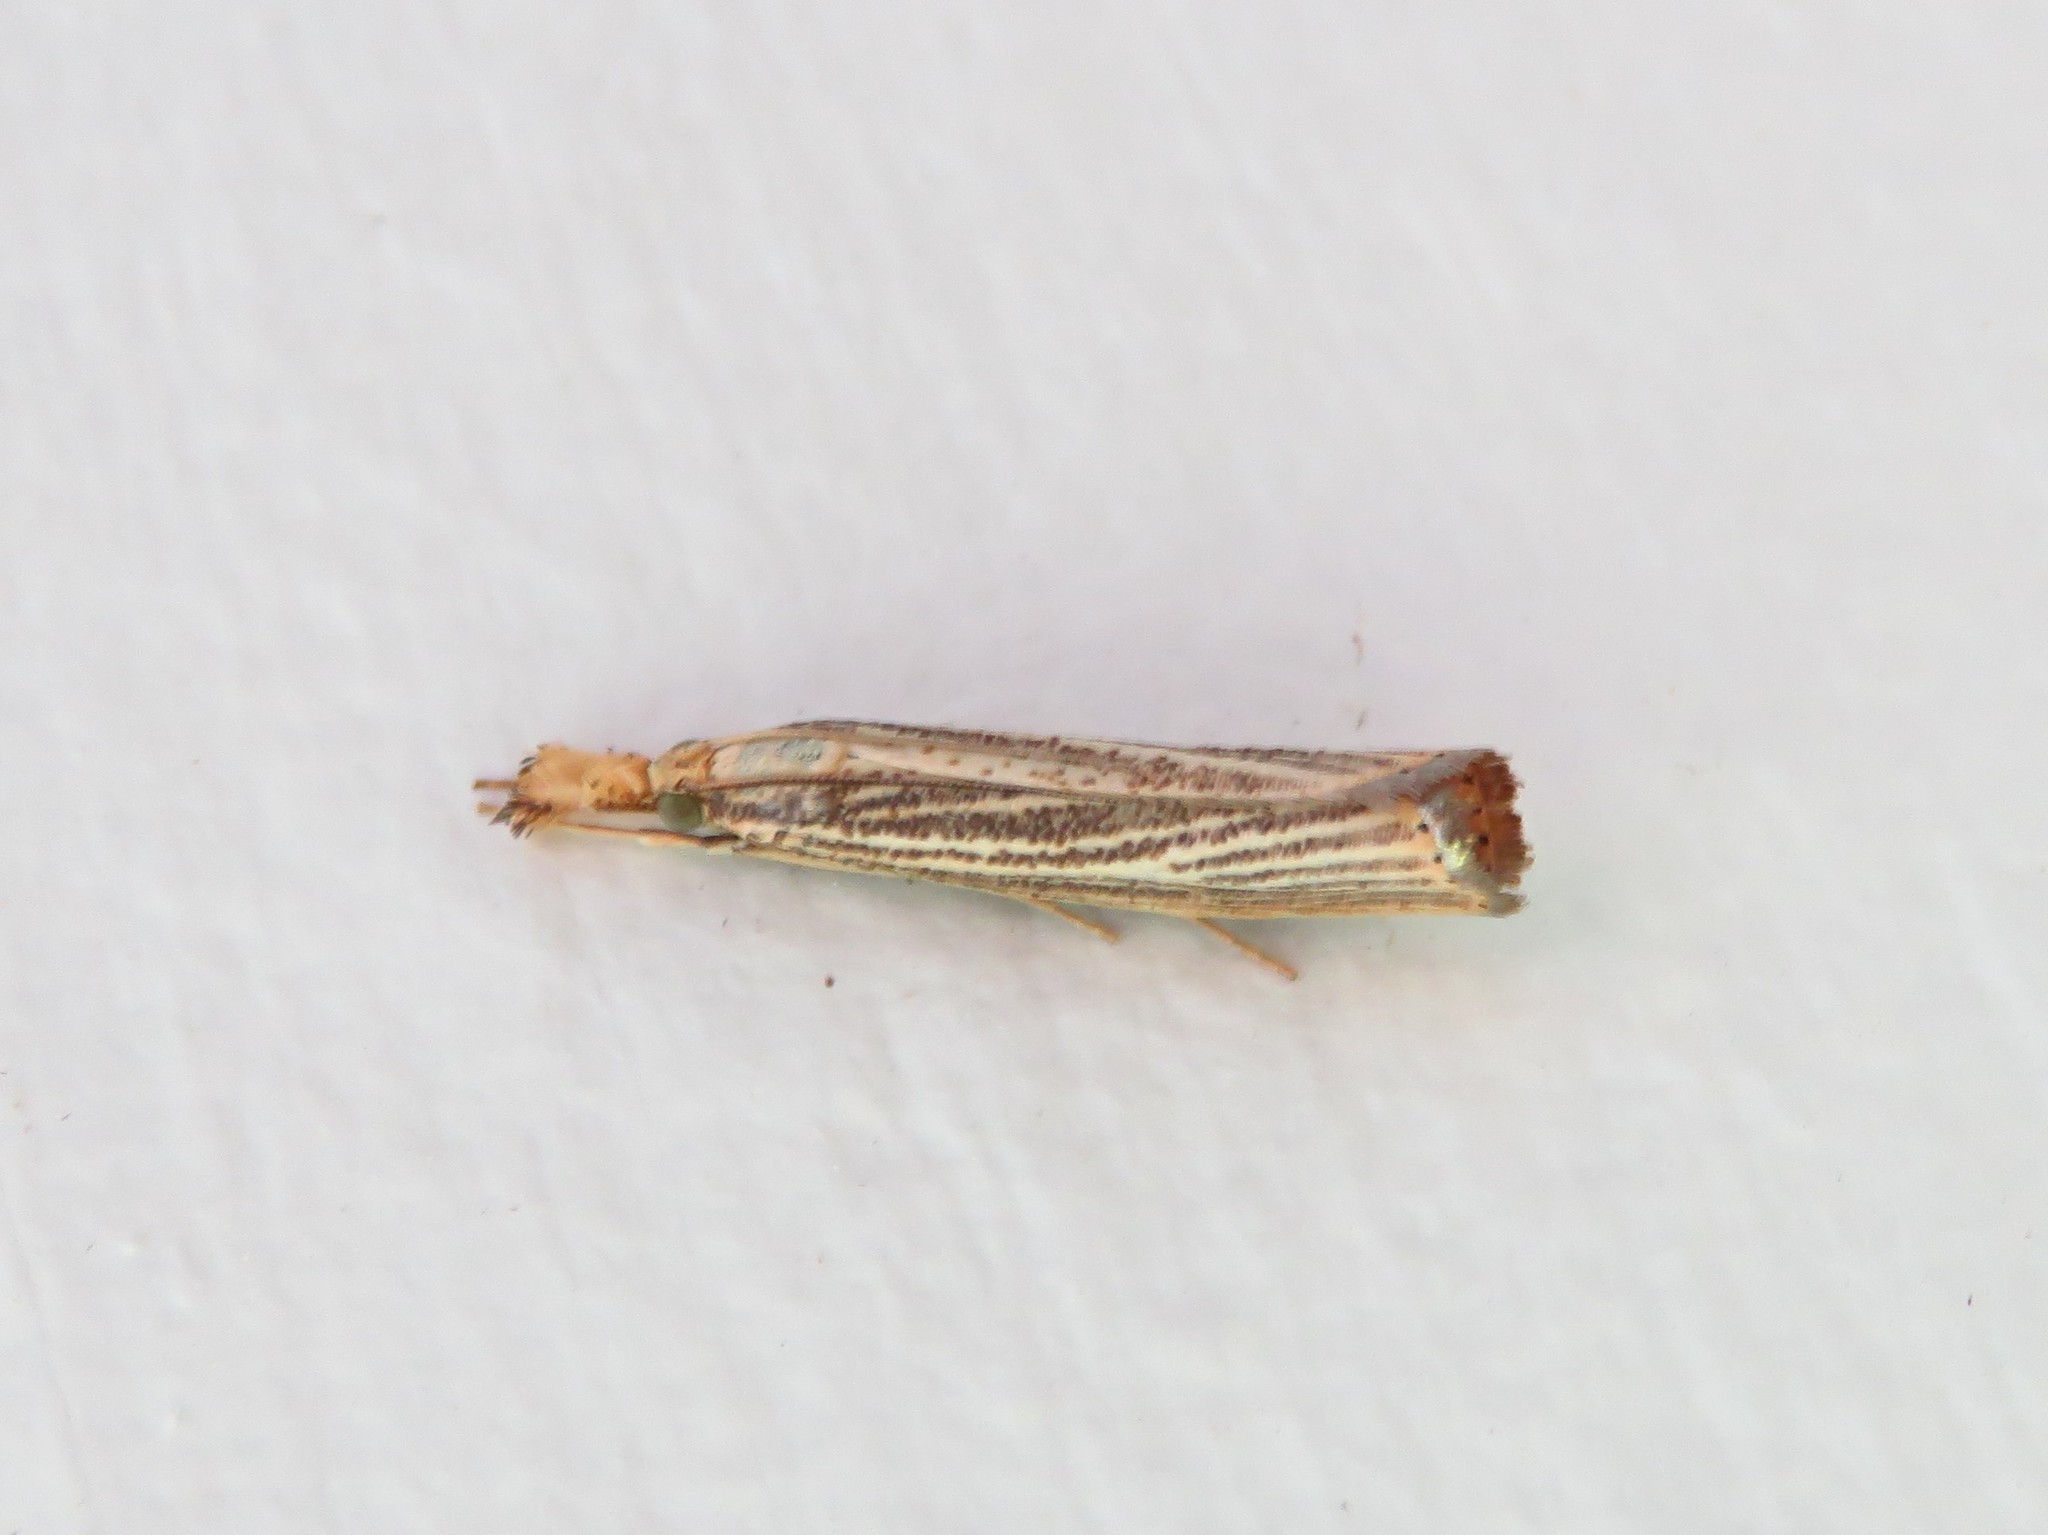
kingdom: Animalia
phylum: Arthropoda
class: Insecta
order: Lepidoptera
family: Crambidae
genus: Agriphila
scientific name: Agriphila vulgivagellus
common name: Vagabond crambus moth
